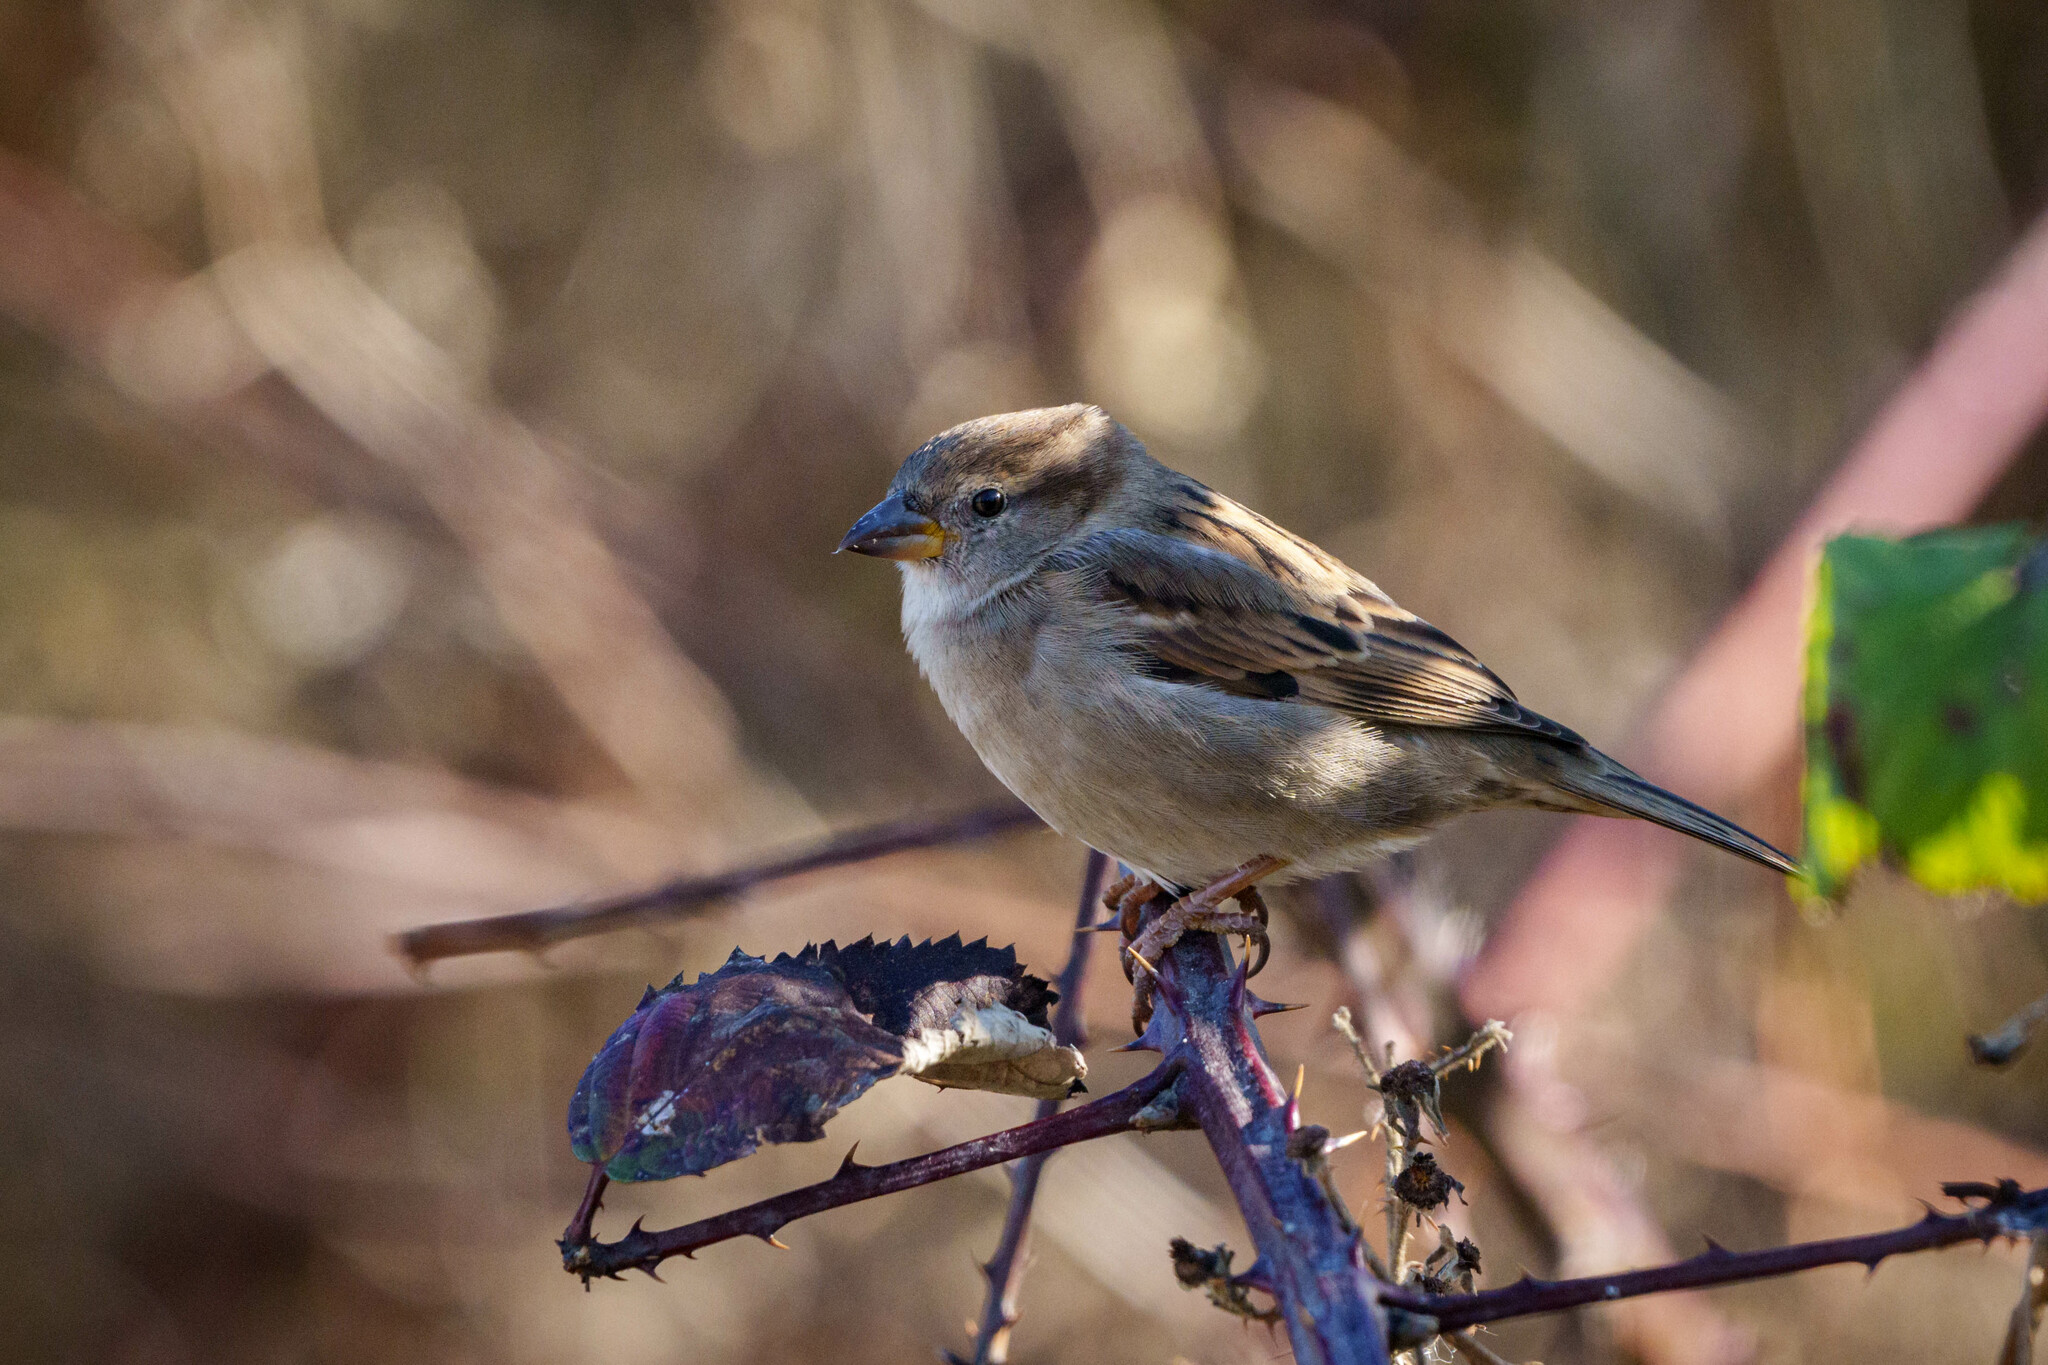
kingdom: Animalia
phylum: Chordata
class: Aves
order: Passeriformes
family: Passeridae
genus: Passer
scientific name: Passer domesticus
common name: House sparrow
